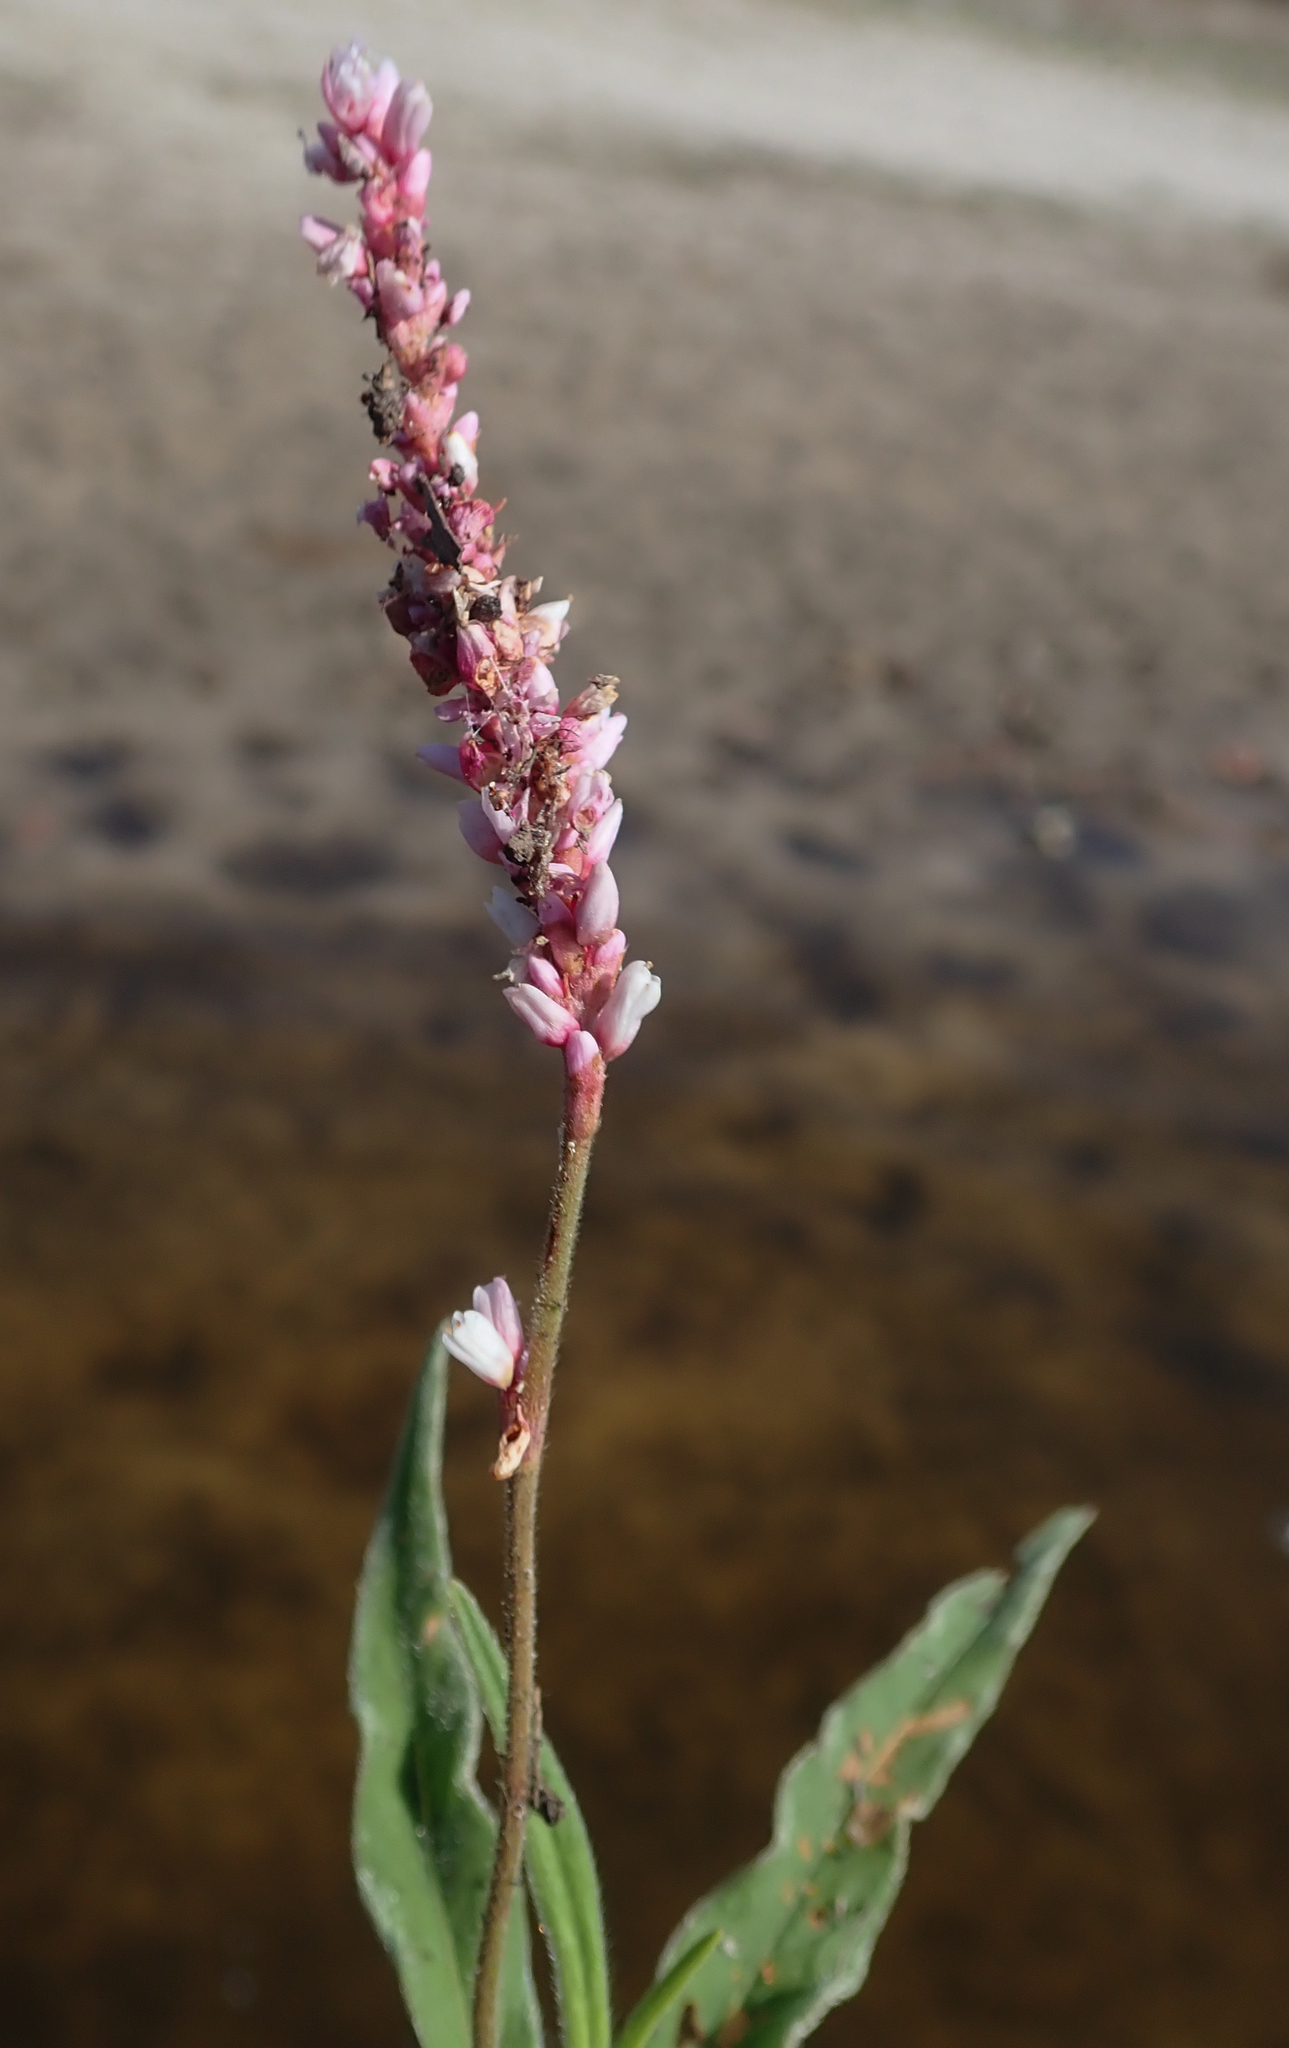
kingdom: Plantae
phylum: Tracheophyta
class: Magnoliopsida
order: Caryophyllales
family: Polygonaceae
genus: Persicaria
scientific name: Persicaria limbata
